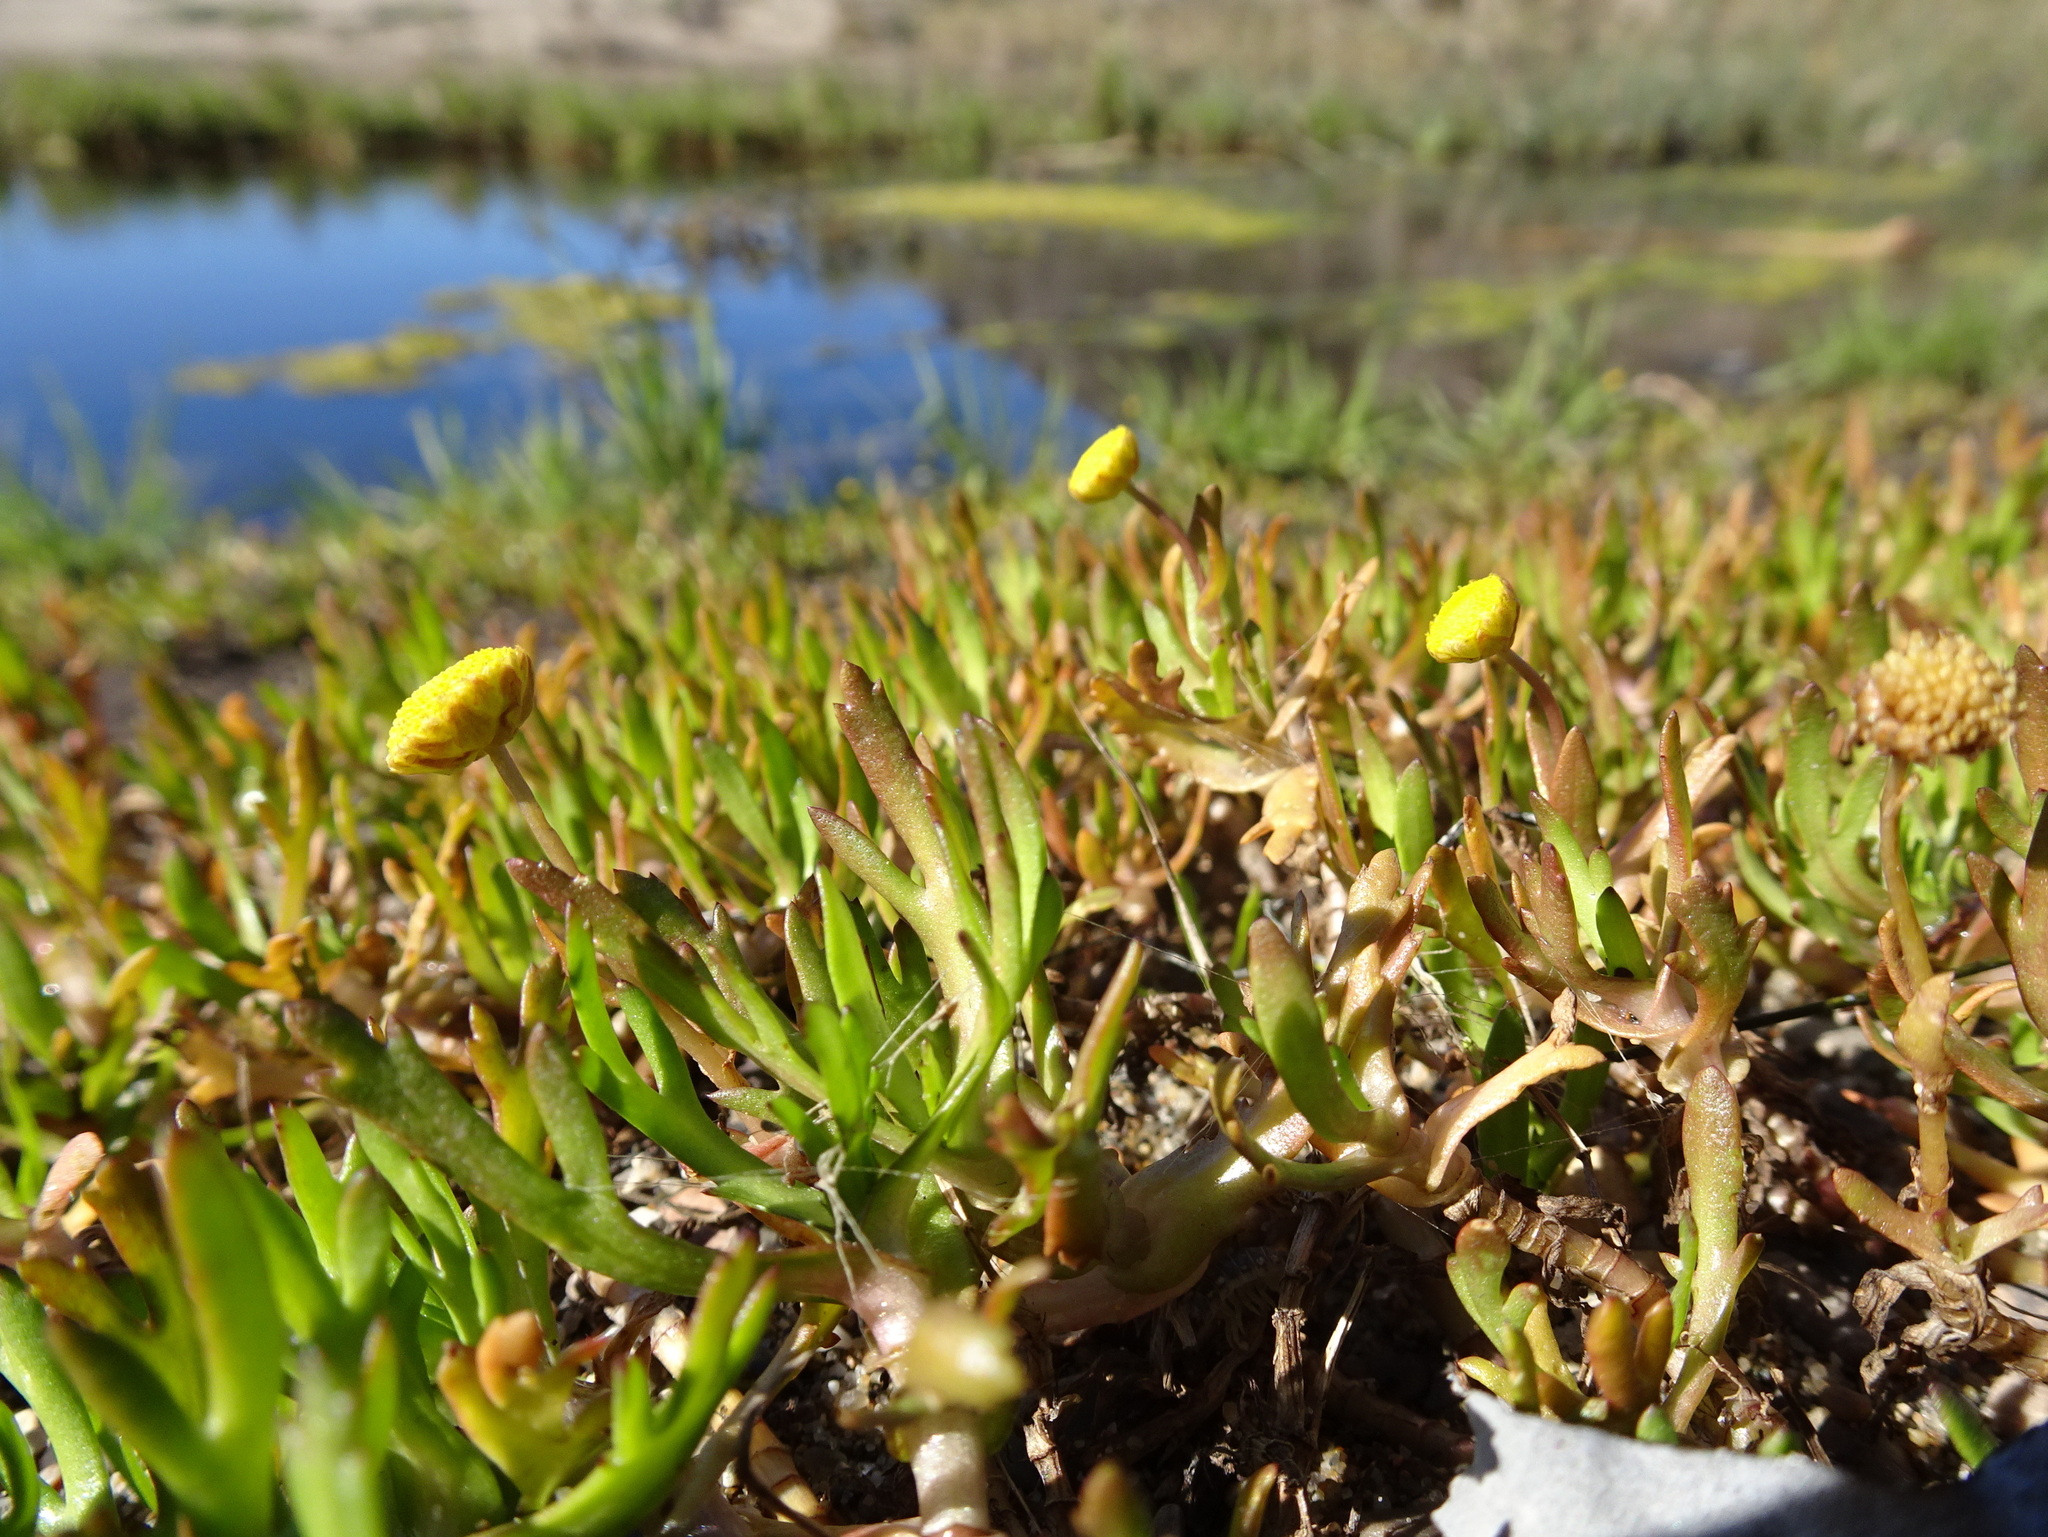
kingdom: Plantae
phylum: Tracheophyta
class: Magnoliopsida
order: Asterales
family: Asteraceae
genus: Cotula
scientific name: Cotula coronopifolia
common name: Buttonweed
